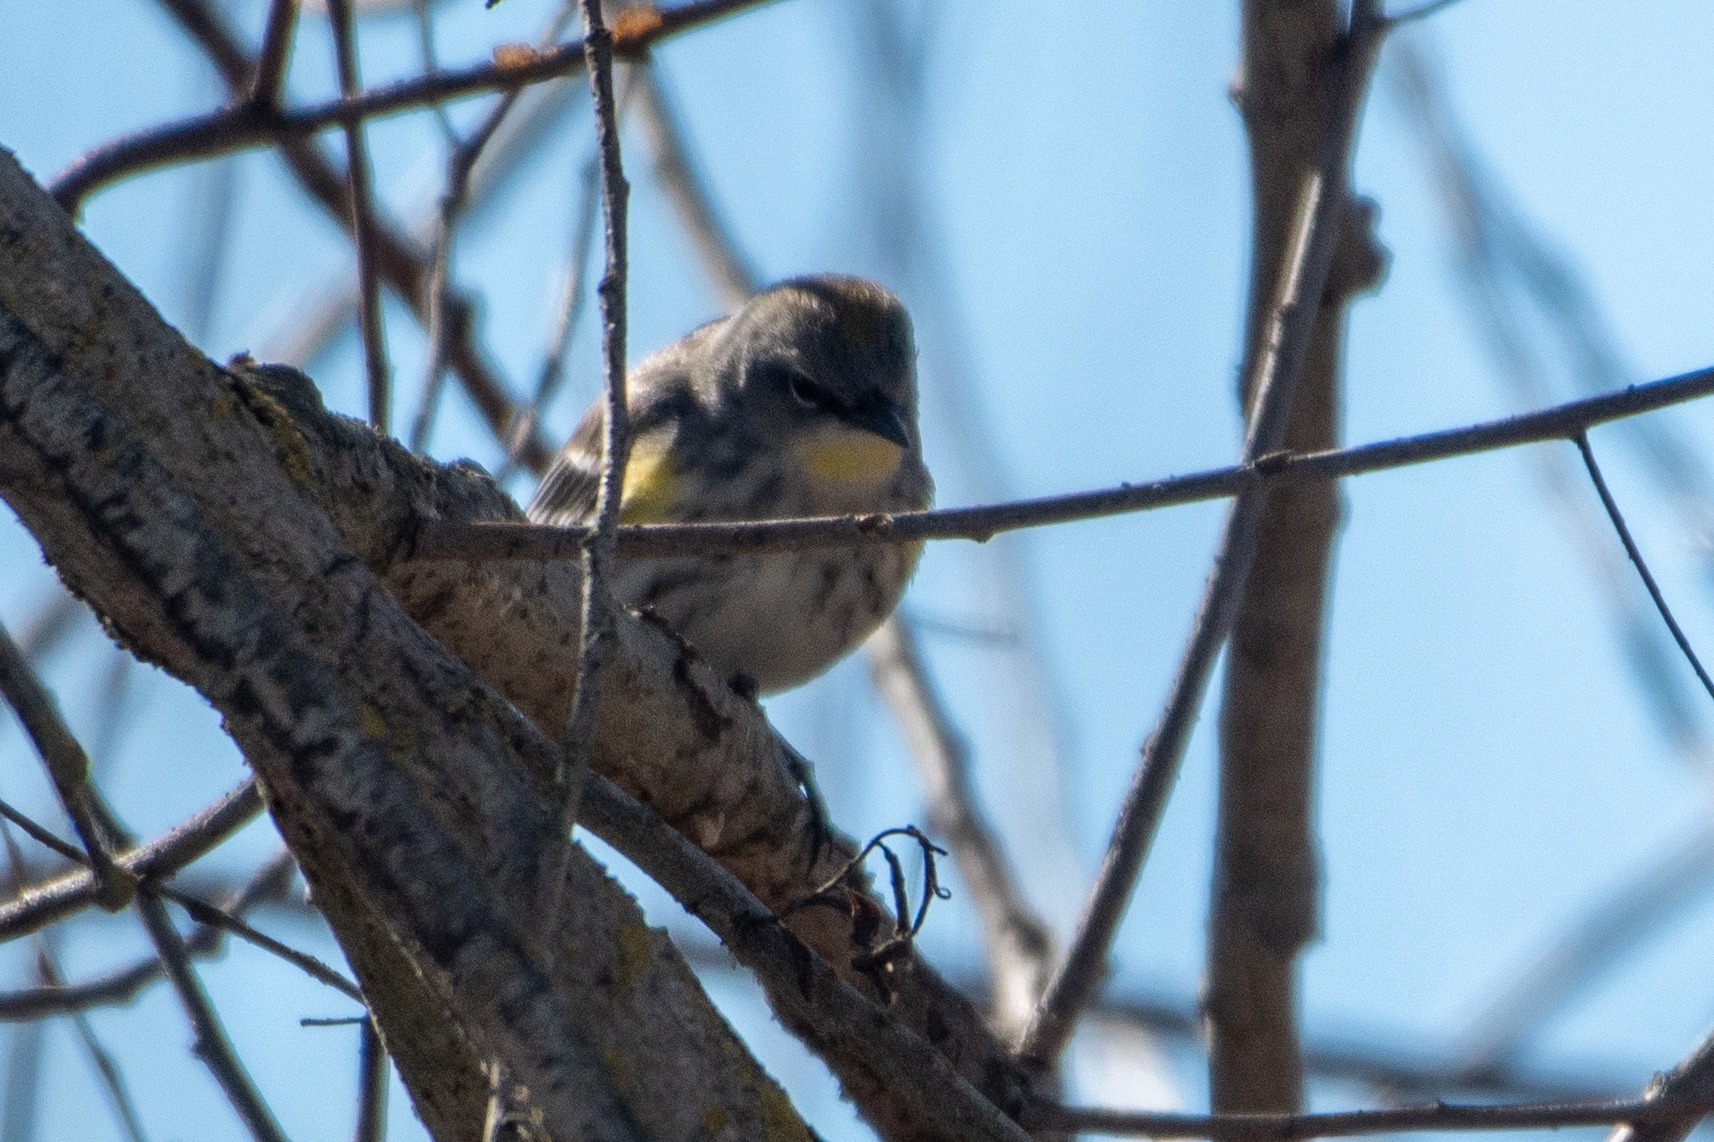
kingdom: Animalia
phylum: Chordata
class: Aves
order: Passeriformes
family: Parulidae
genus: Setophaga
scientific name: Setophaga coronata
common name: Myrtle warbler
